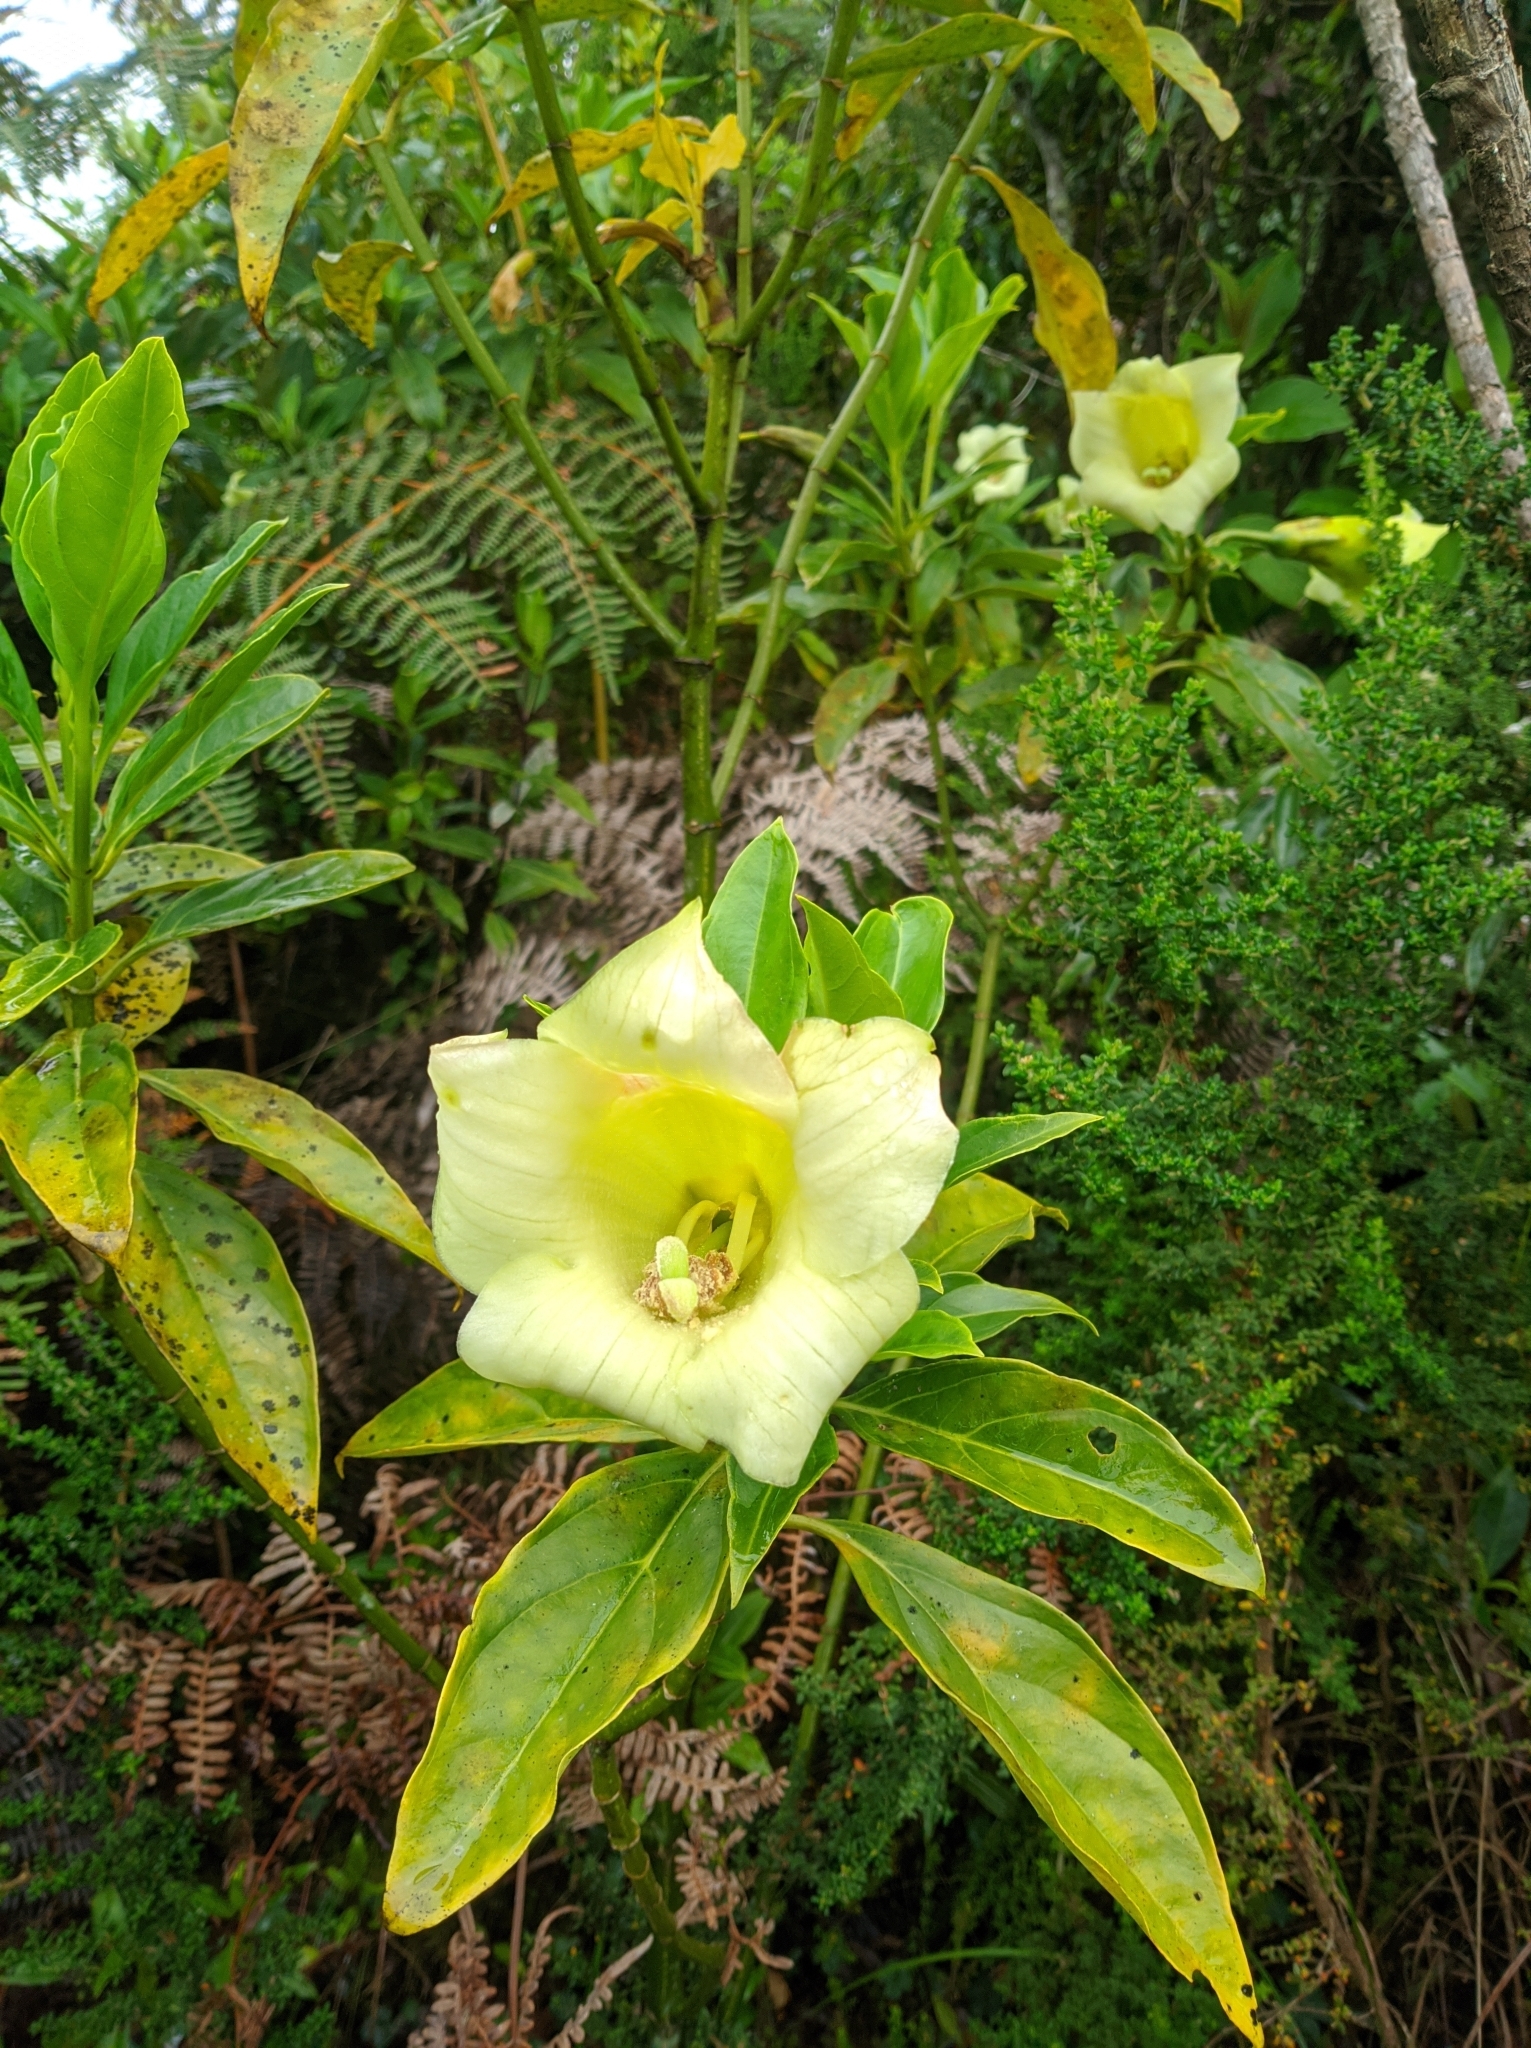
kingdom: Plantae
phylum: Tracheophyta
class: Magnoliopsida
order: Gentianales
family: Gentianaceae
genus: Symbolanthus
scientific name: Symbolanthus vasculosus
